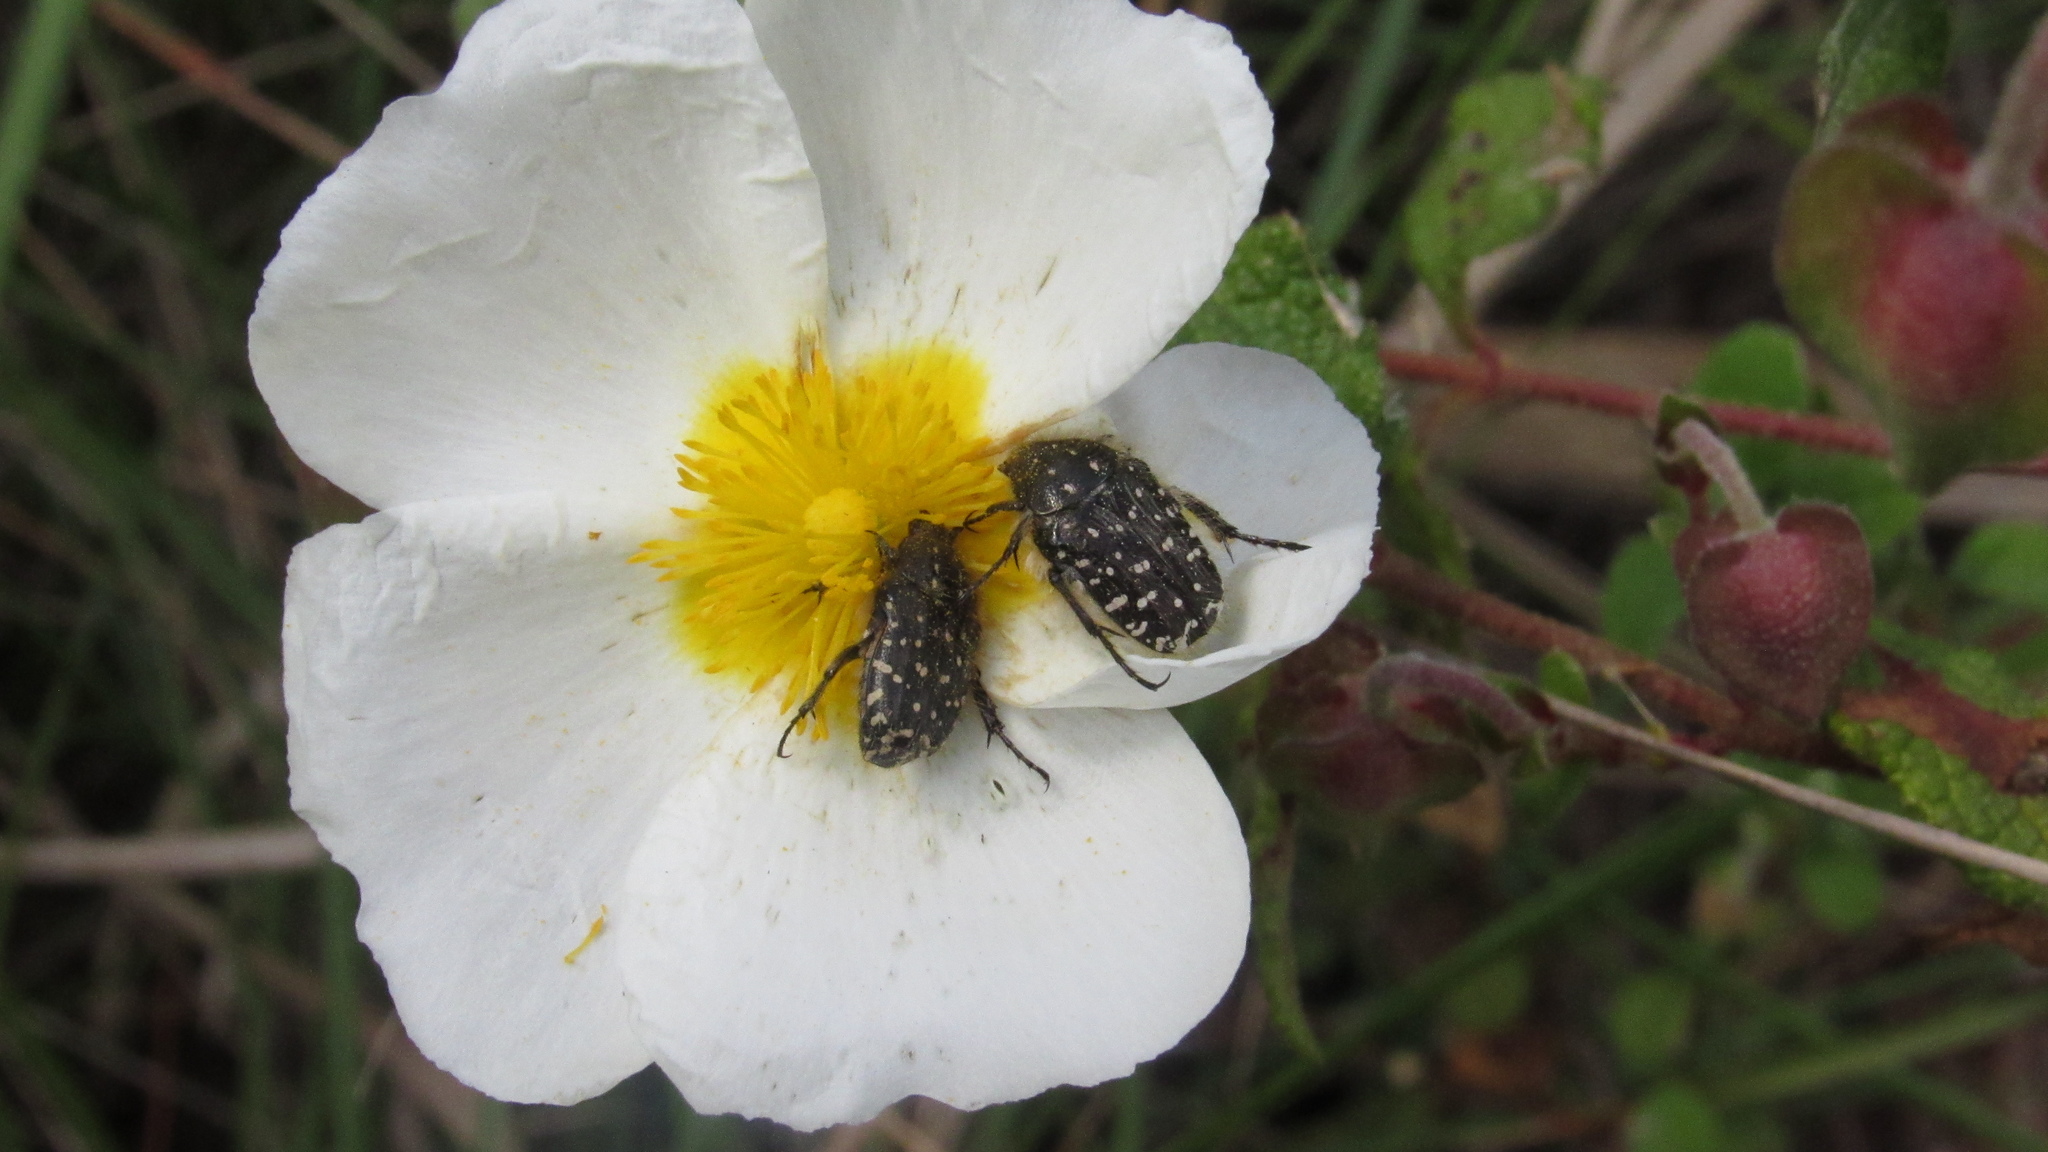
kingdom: Animalia
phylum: Arthropoda
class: Insecta
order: Coleoptera
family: Scarabaeidae
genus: Oxythyrea
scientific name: Oxythyrea funesta
